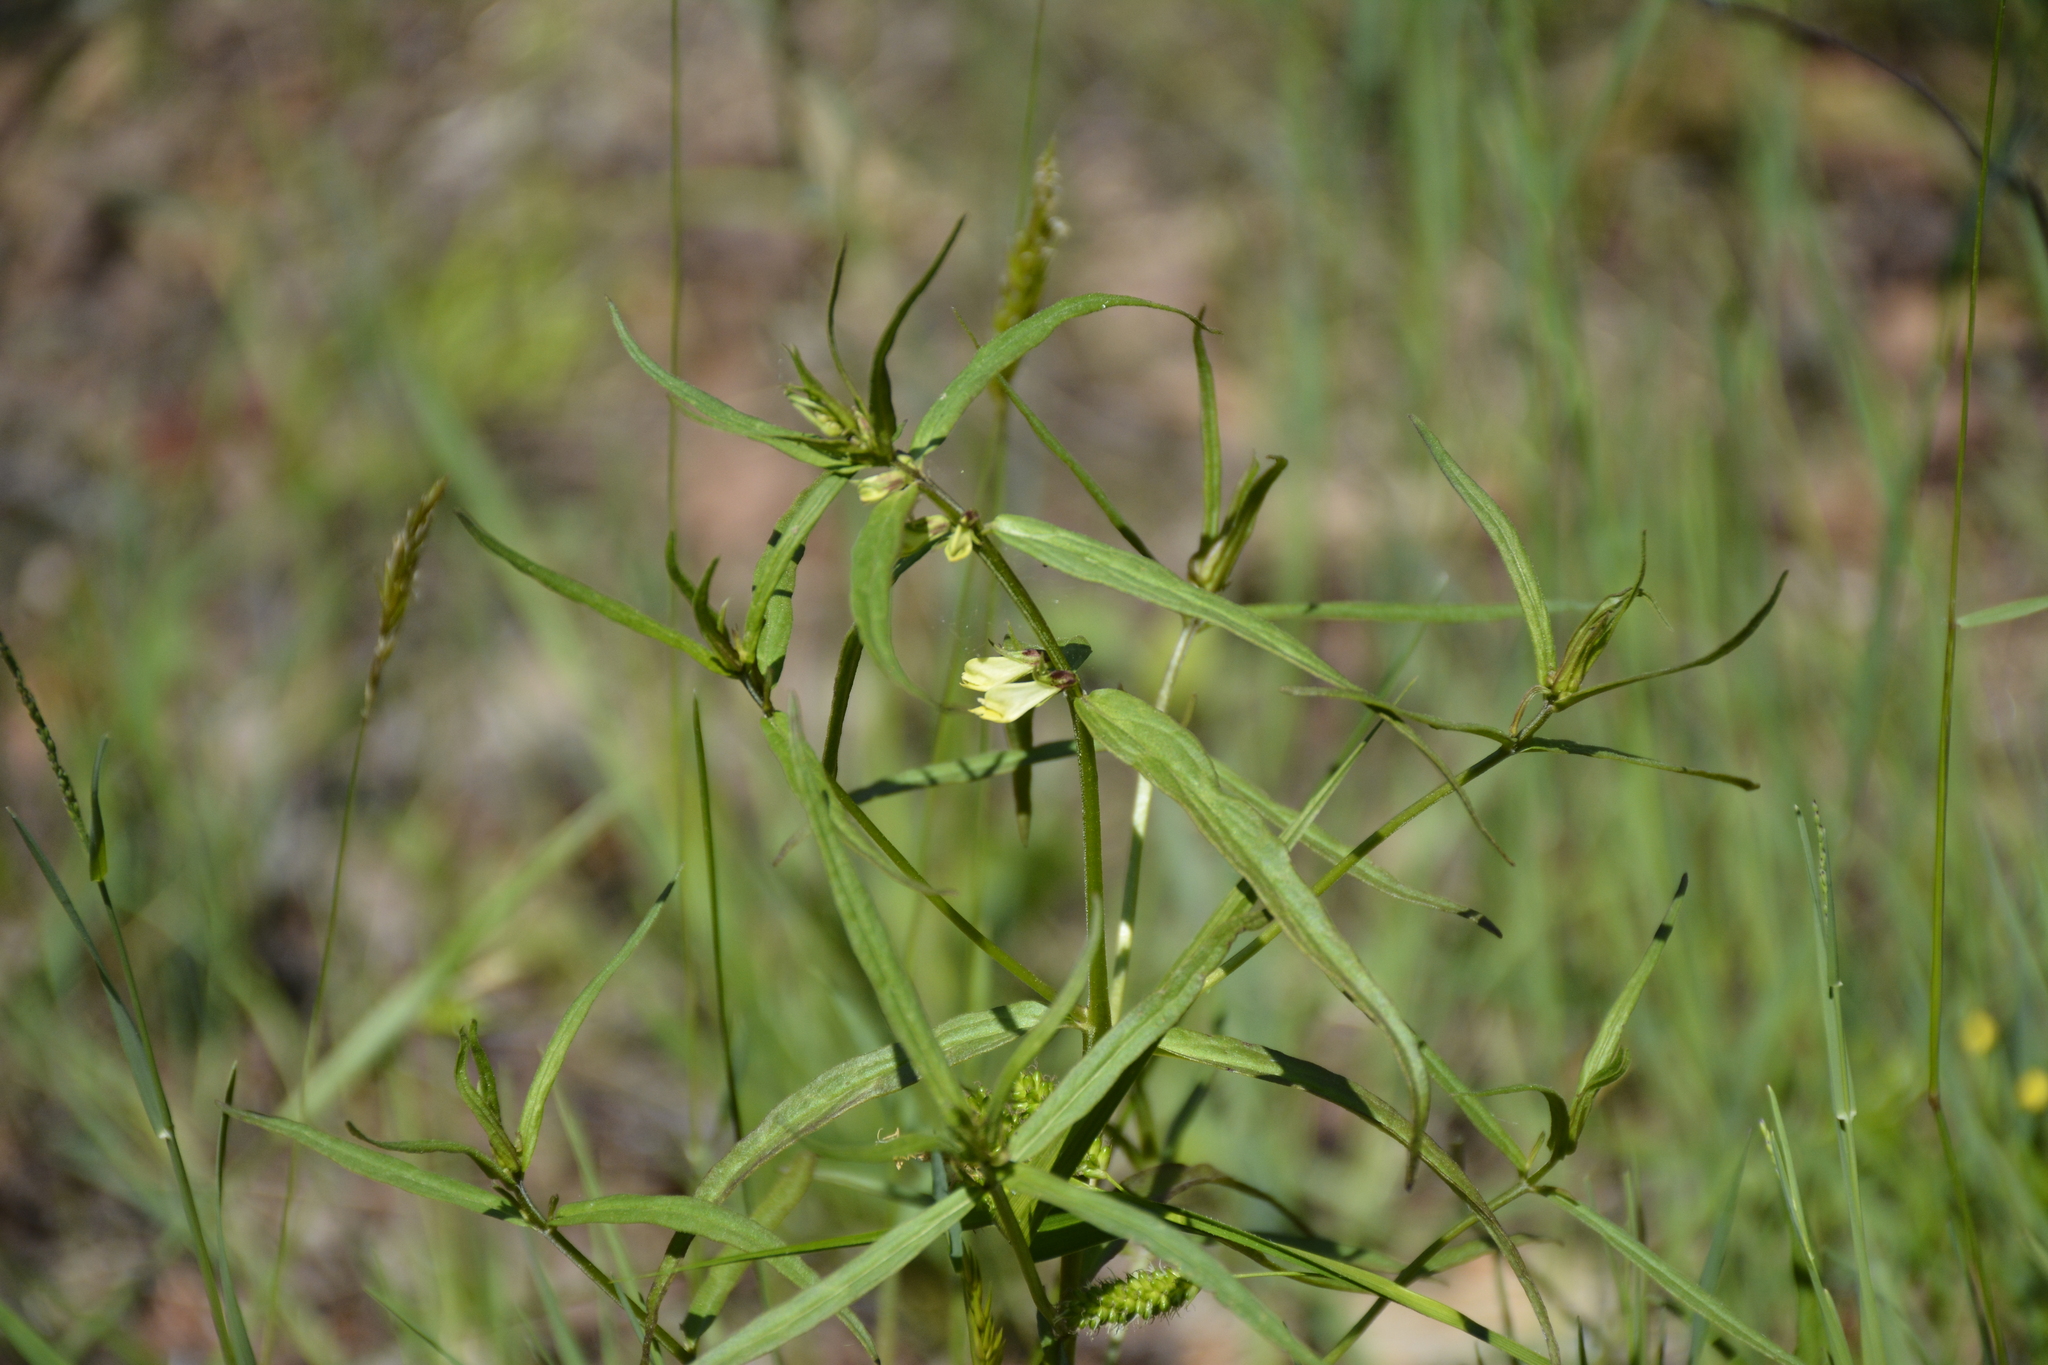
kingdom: Plantae
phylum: Tracheophyta
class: Magnoliopsida
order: Lamiales
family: Orobanchaceae
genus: Melampyrum
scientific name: Melampyrum pratense
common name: Common cow-wheat
